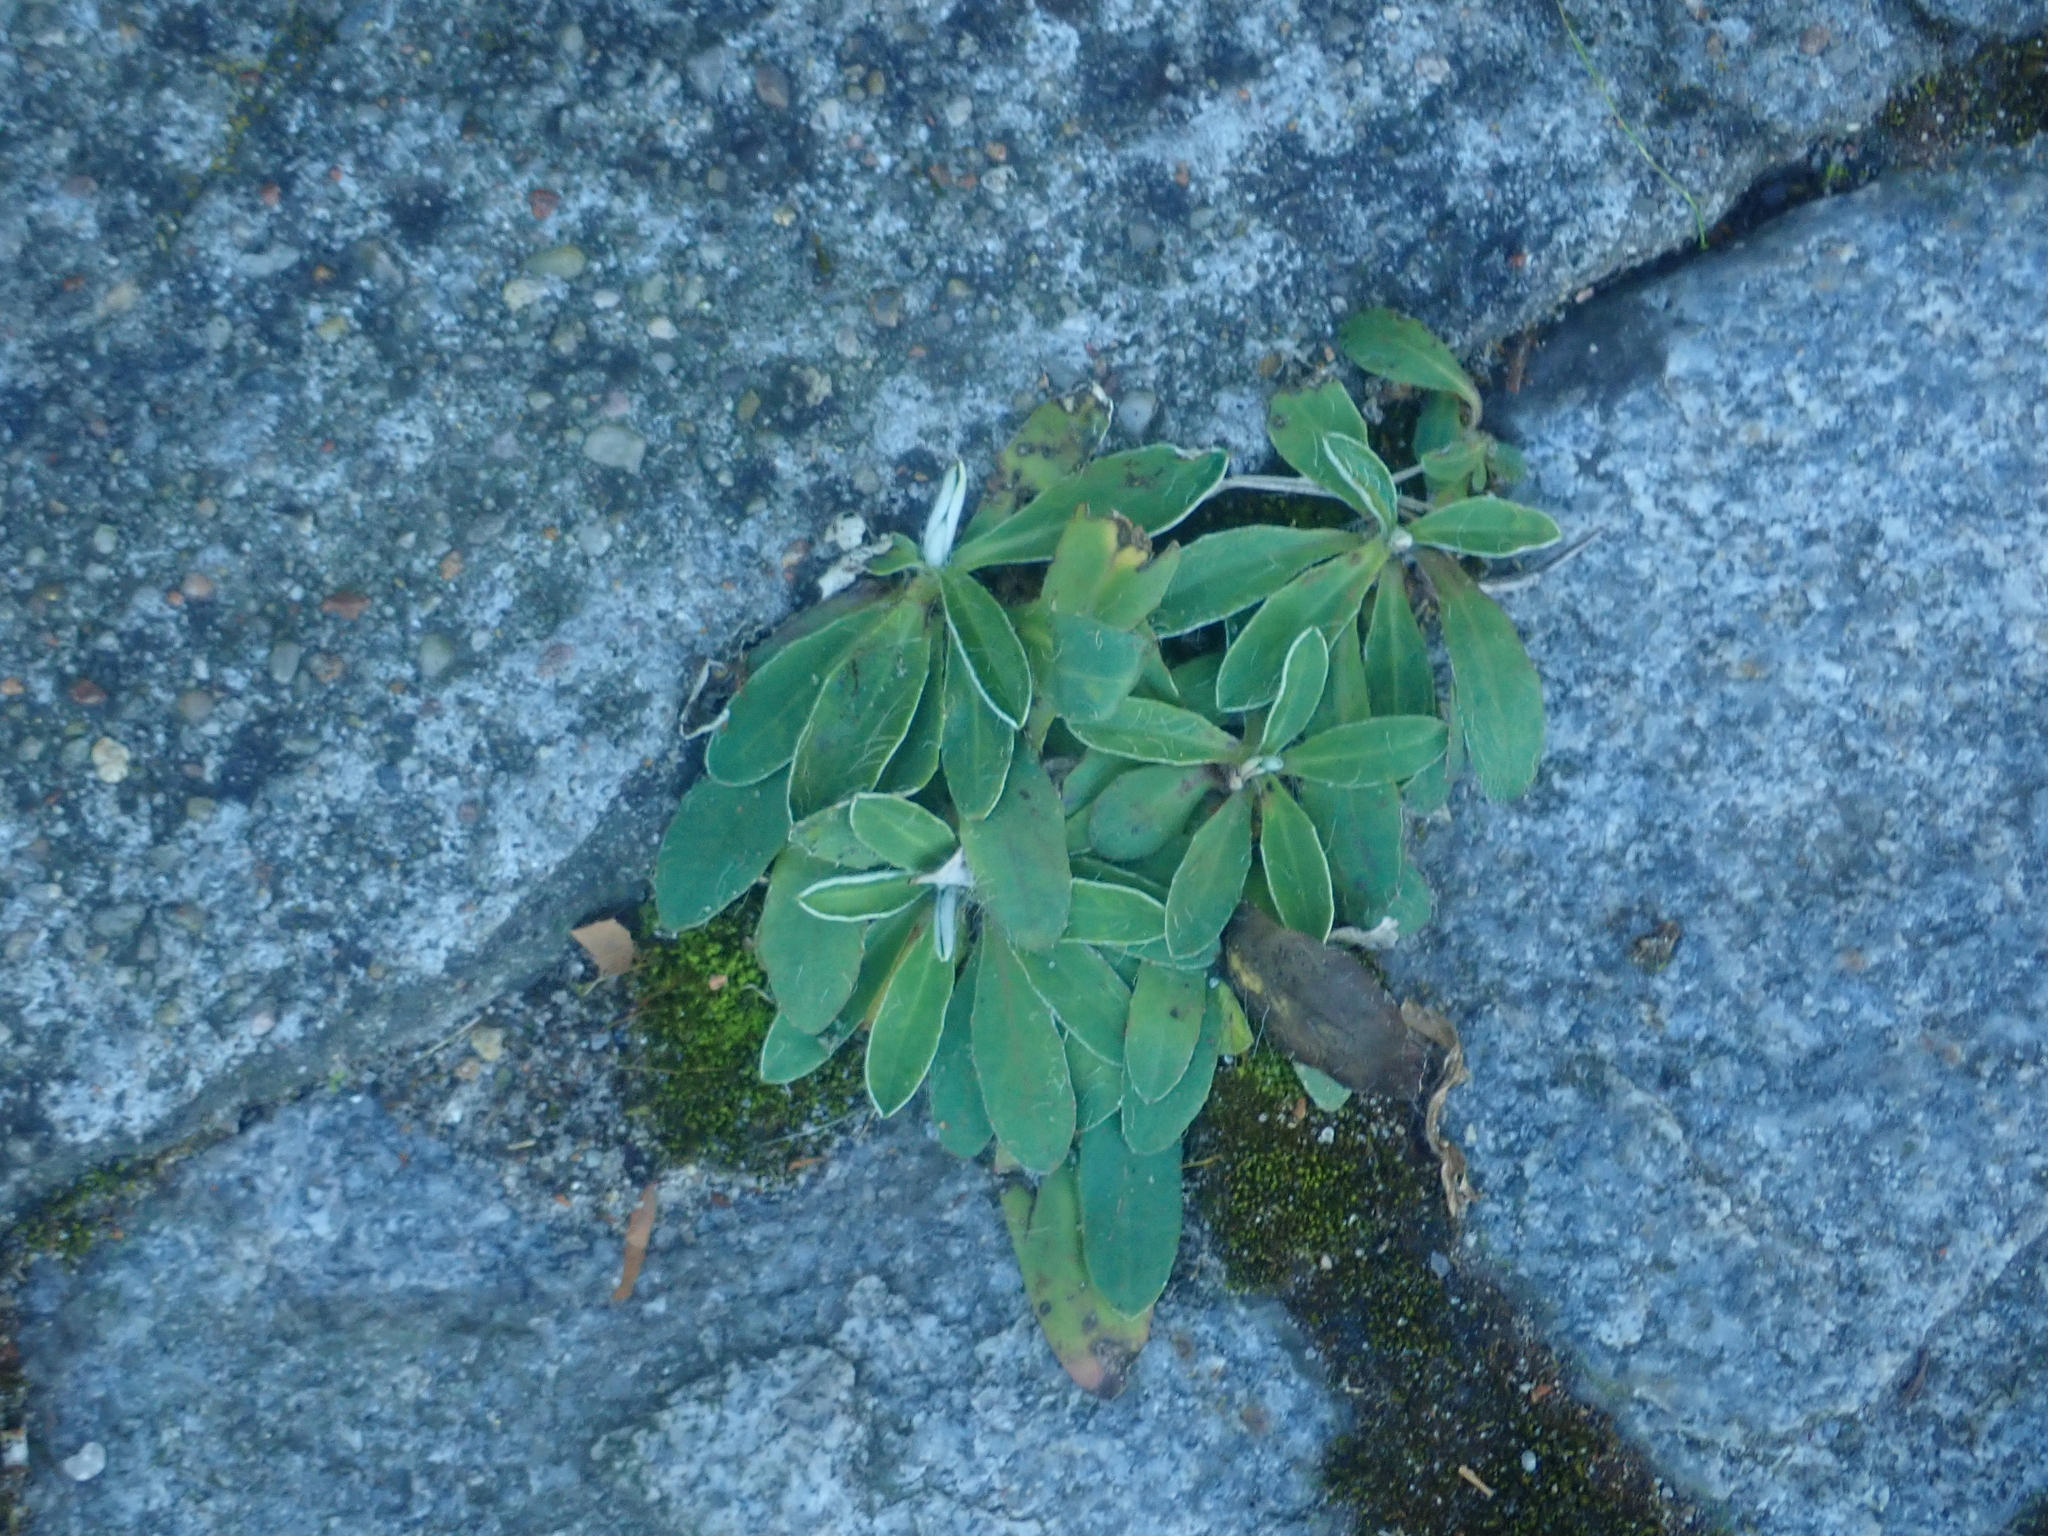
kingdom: Plantae
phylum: Tracheophyta
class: Magnoliopsida
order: Asterales
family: Asteraceae
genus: Pilosella
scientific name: Pilosella officinarum
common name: Mouse-ear hawkweed
